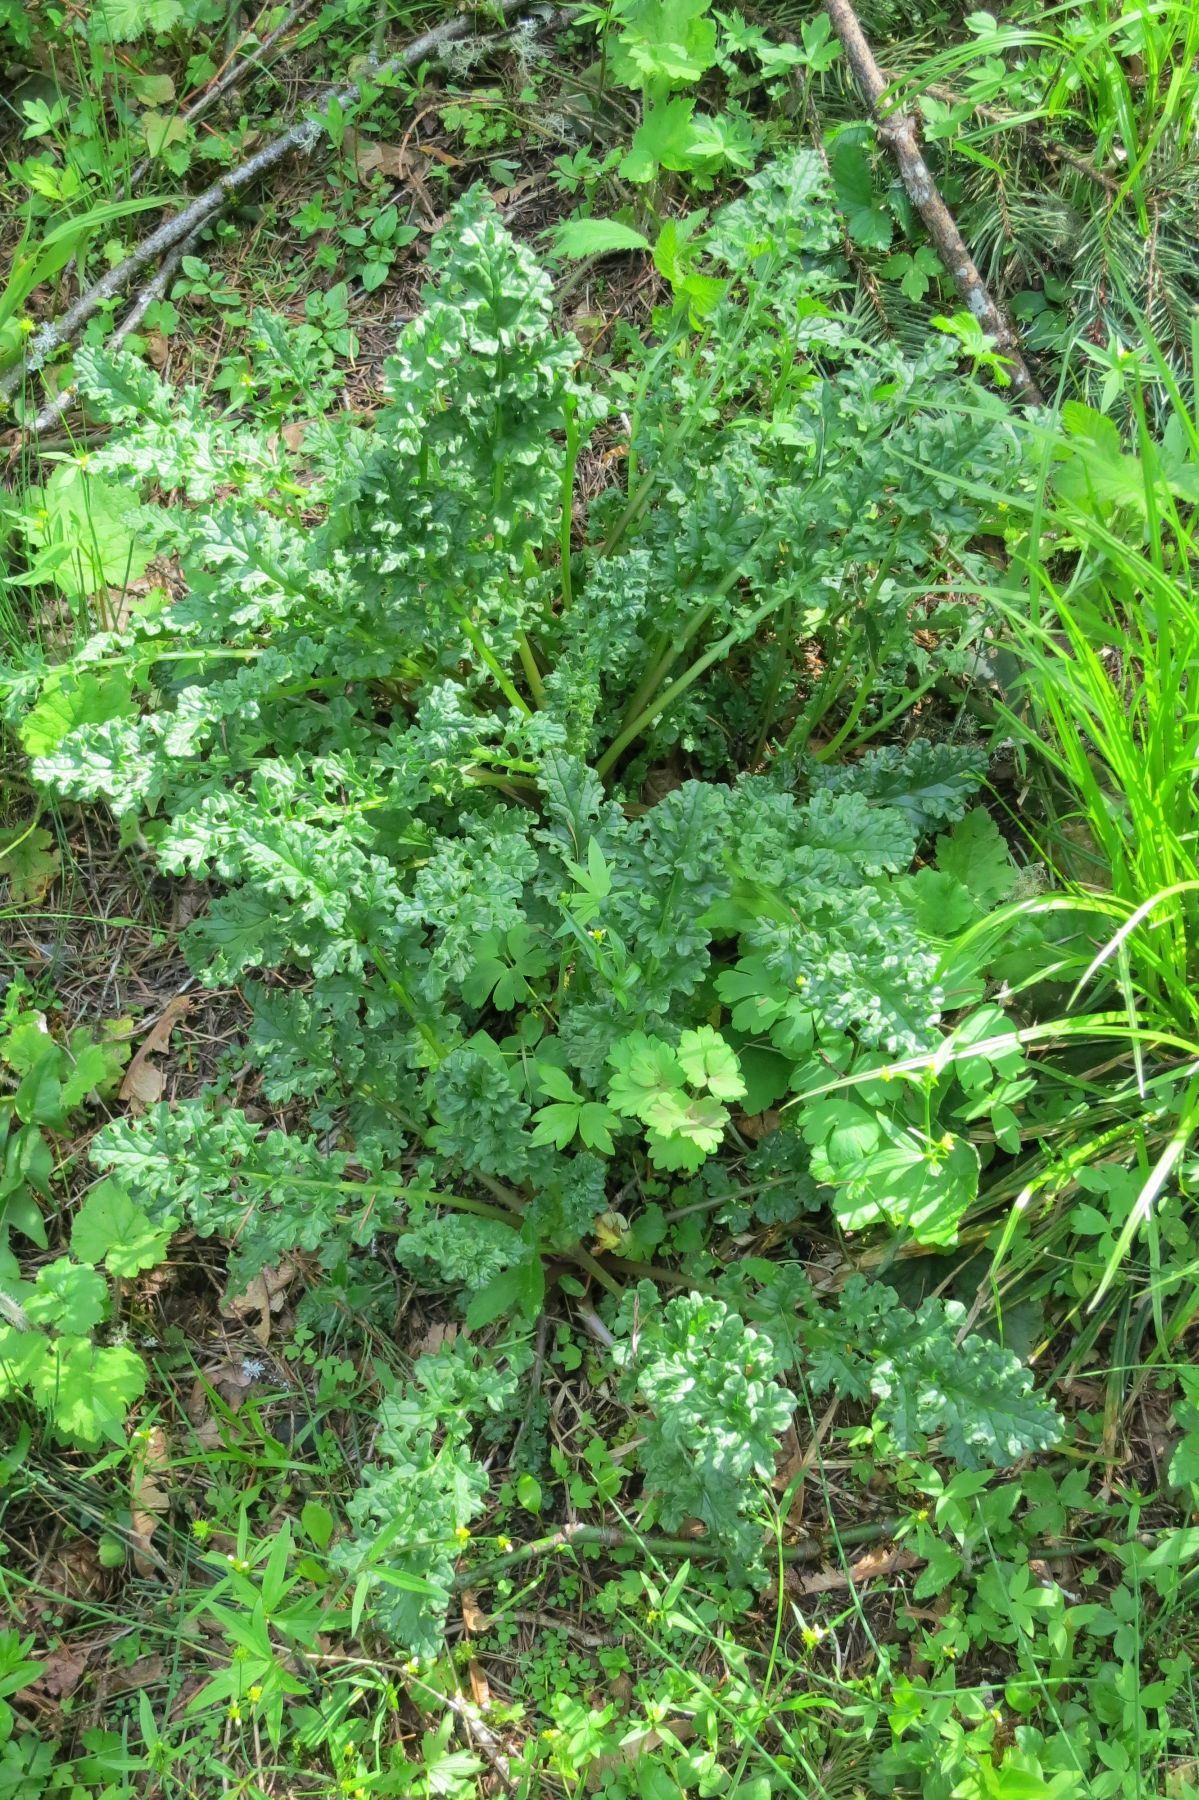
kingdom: Plantae
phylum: Tracheophyta
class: Magnoliopsida
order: Asterales
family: Asteraceae
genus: Jacobaea
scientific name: Jacobaea vulgaris
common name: Stinking willie
